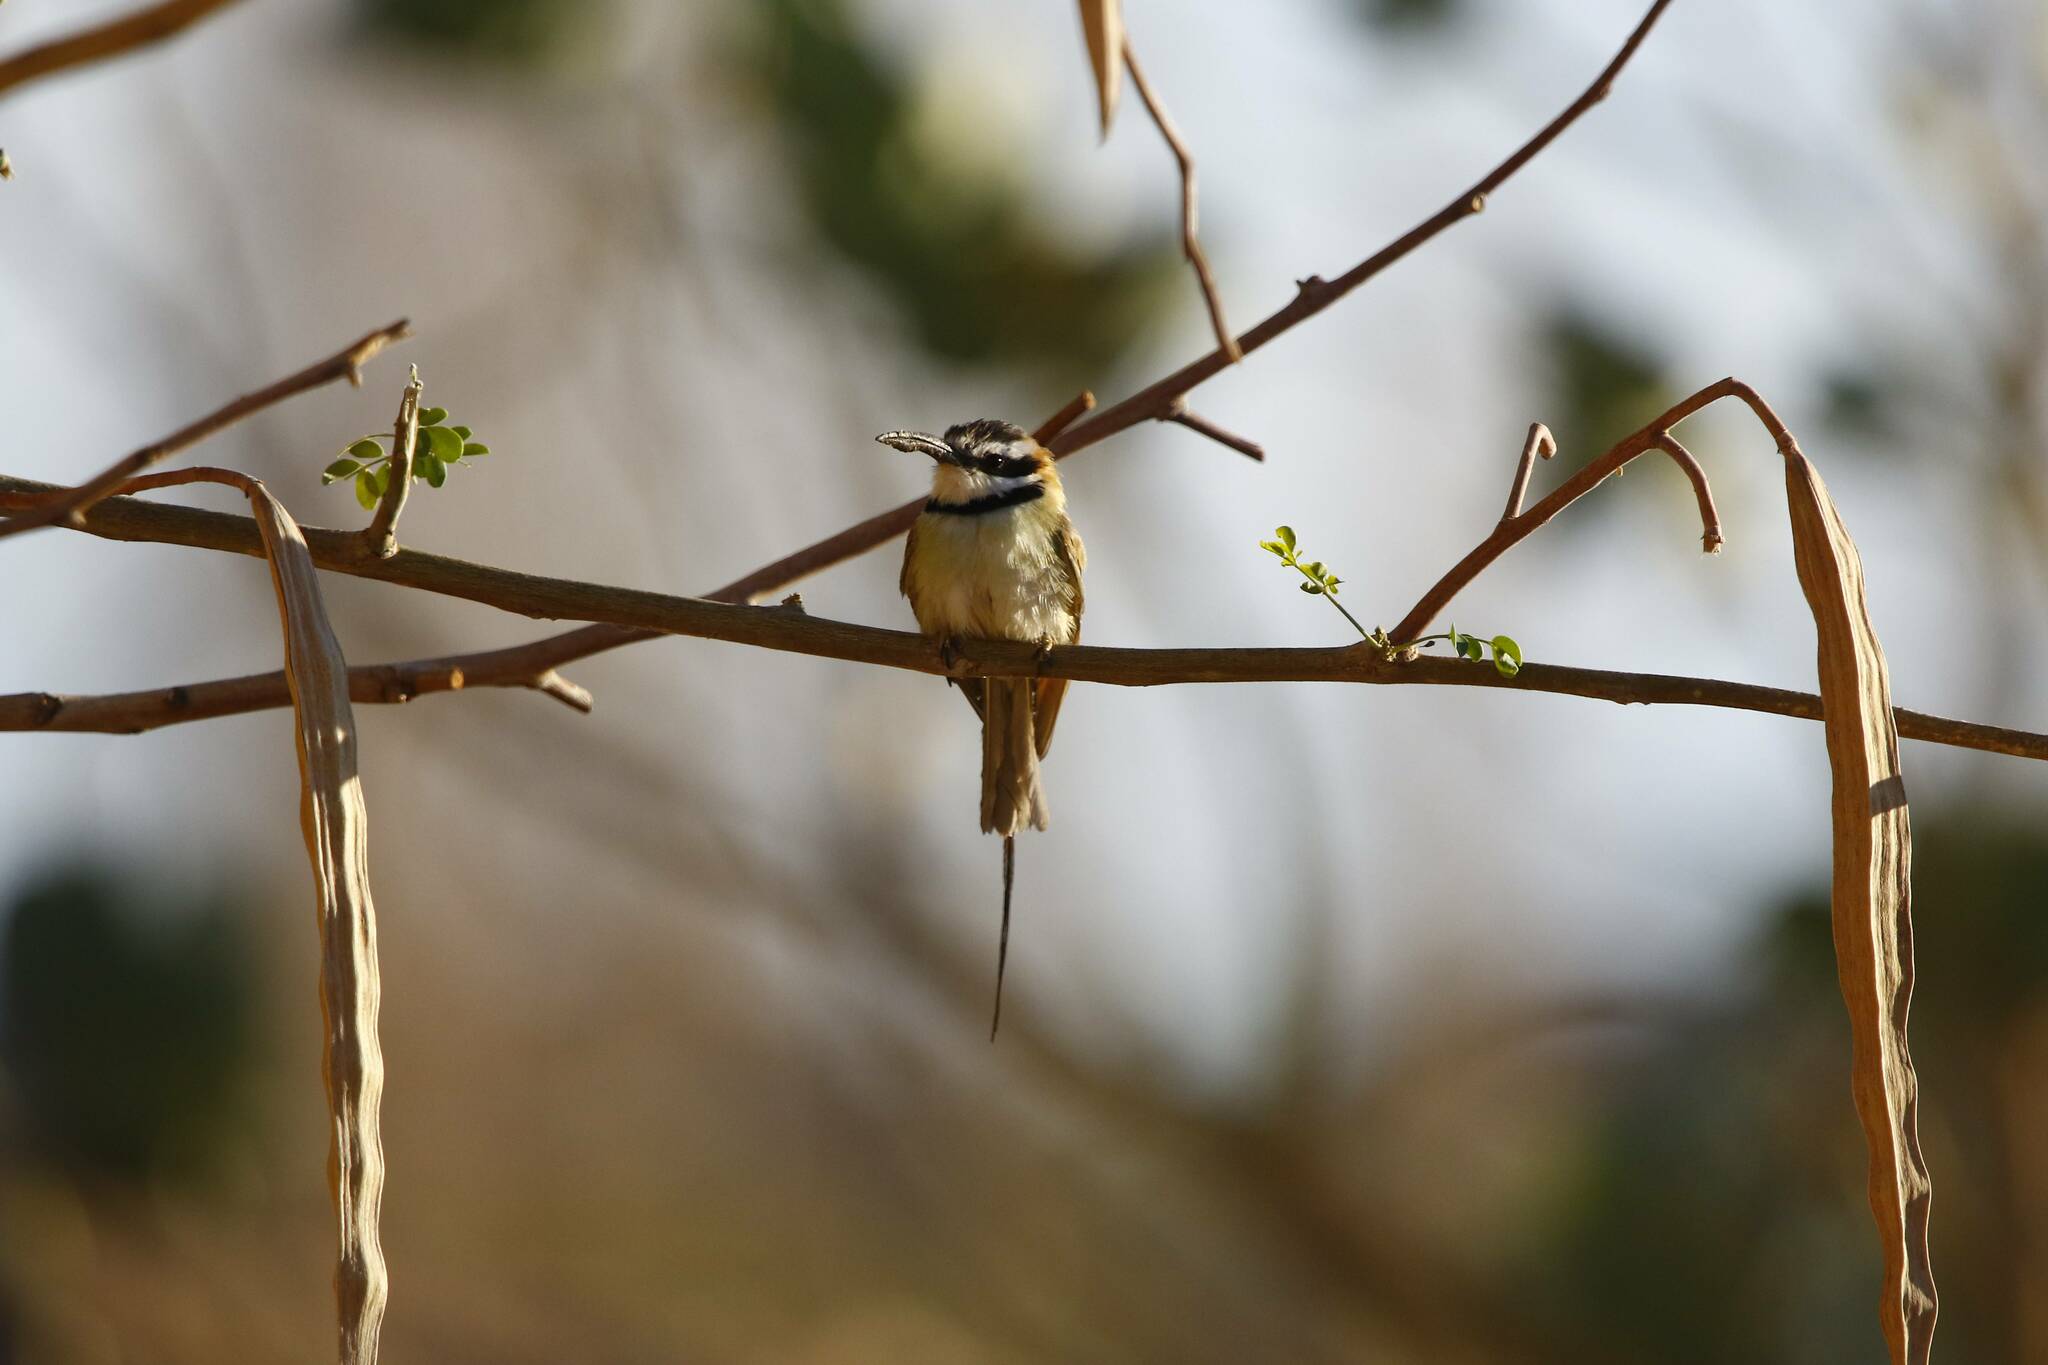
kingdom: Animalia
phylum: Chordata
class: Aves
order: Coraciiformes
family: Meropidae
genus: Merops
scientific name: Merops albicollis
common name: White-throated bee-eater
